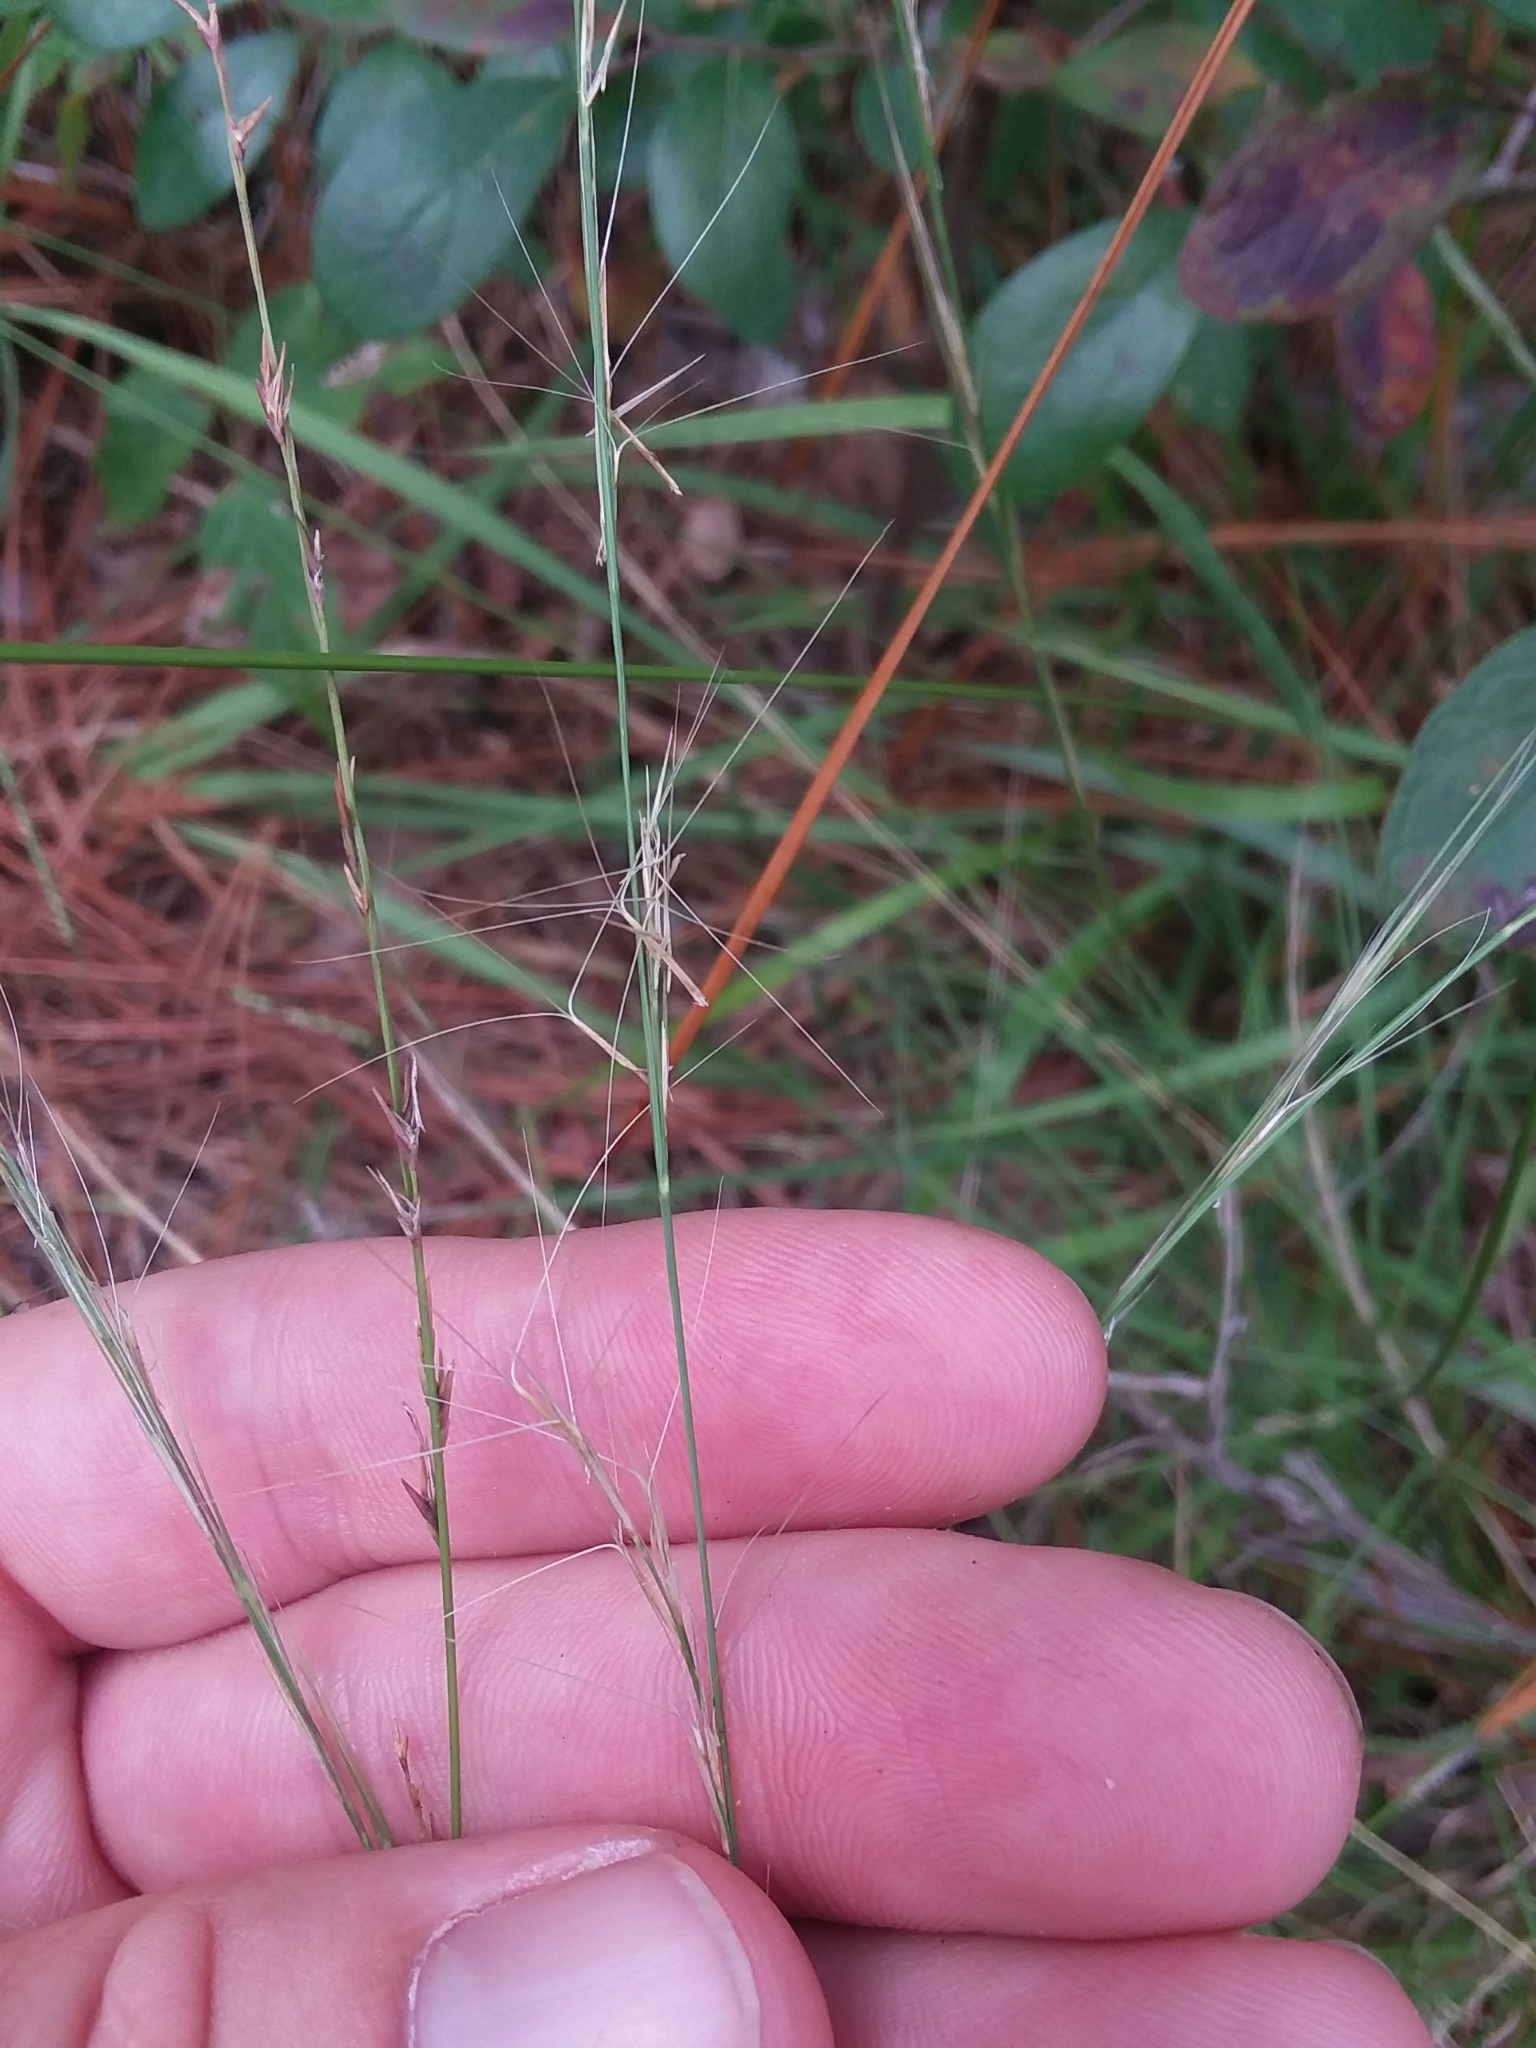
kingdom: Plantae
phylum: Tracheophyta
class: Liliopsida
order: Poales
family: Poaceae
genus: Aristida
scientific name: Aristida purpurascens
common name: Arrow-feather
